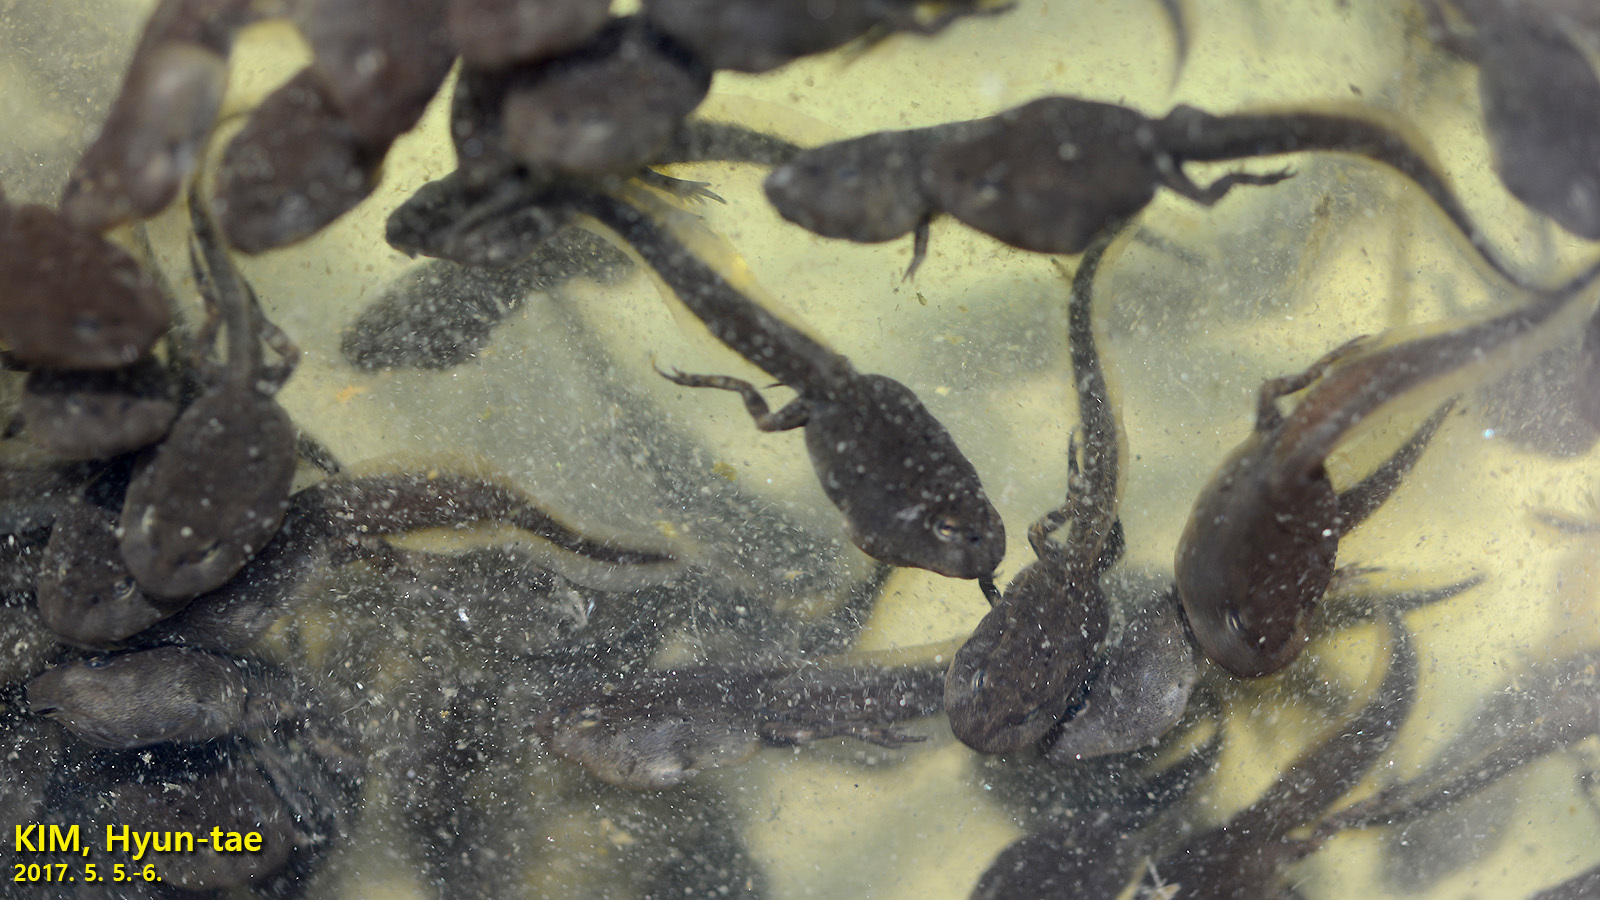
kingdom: Animalia
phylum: Chordata
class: Amphibia
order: Anura
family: Bufonidae
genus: Bufo
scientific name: Bufo gargarizans
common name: Asiatic toad
